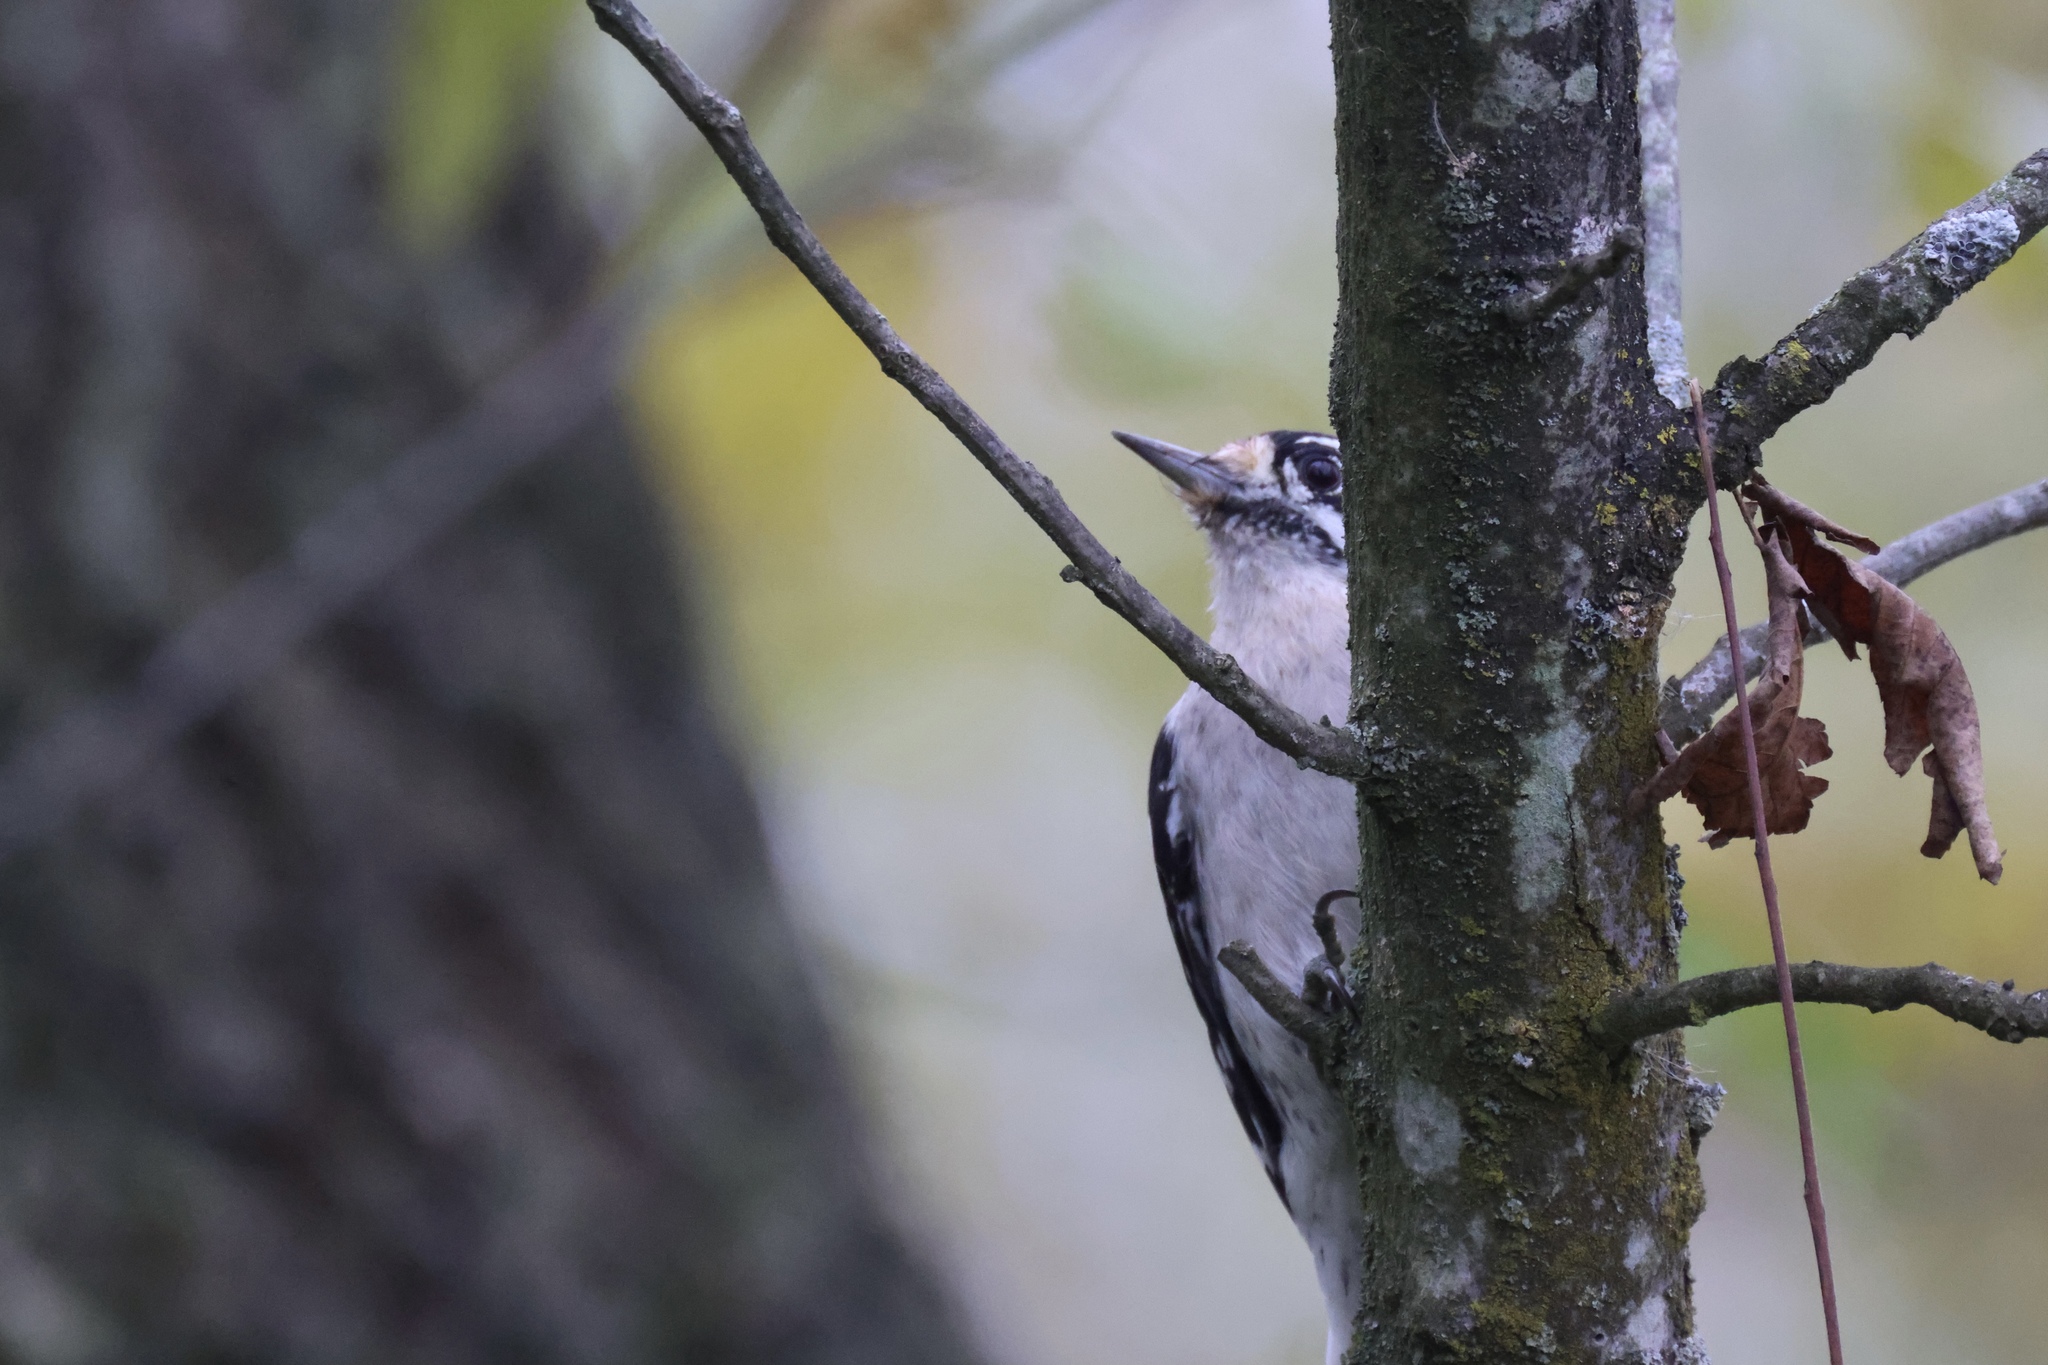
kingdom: Animalia
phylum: Chordata
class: Aves
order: Piciformes
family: Picidae
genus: Dryobates
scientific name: Dryobates pubescens
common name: Downy woodpecker
